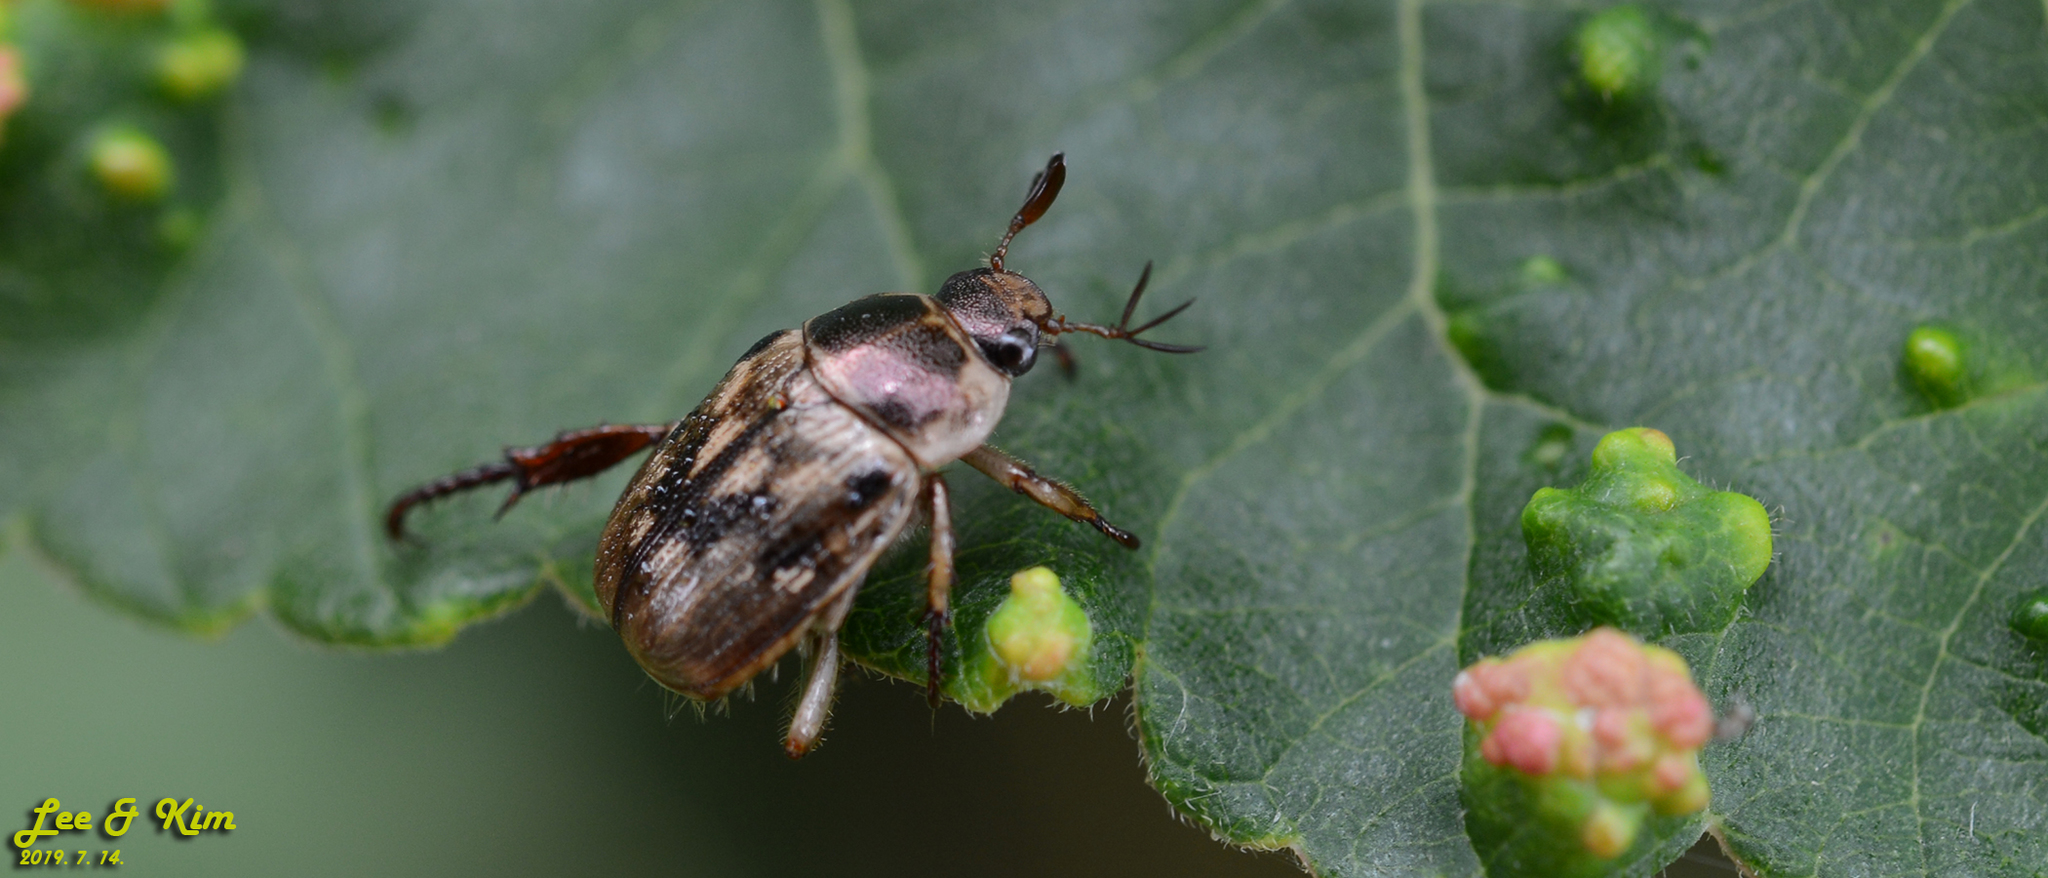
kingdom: Animalia
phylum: Arthropoda
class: Insecta
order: Coleoptera
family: Scarabaeidae
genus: Exomala
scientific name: Exomala orientalis
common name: Oriental beetle
